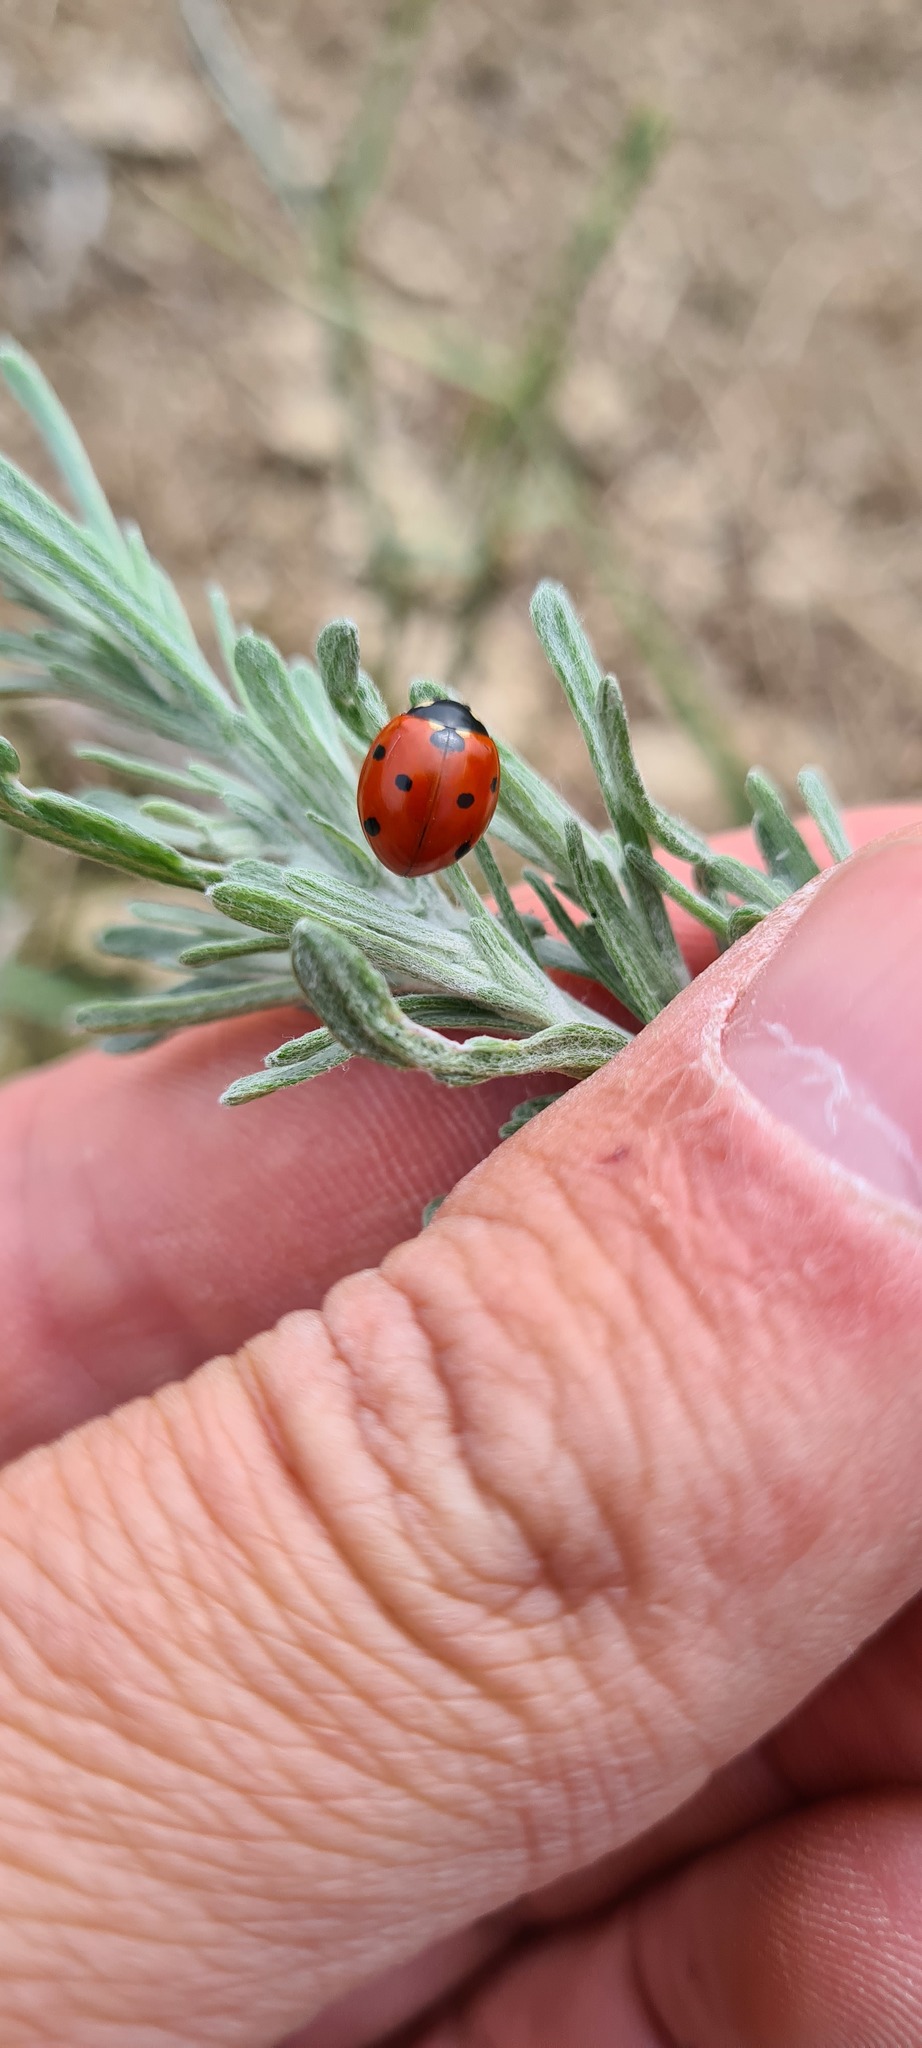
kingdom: Animalia
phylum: Arthropoda
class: Insecta
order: Coleoptera
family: Coccinellidae
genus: Coccinella
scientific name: Coccinella septempunctata
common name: Sevenspotted lady beetle
